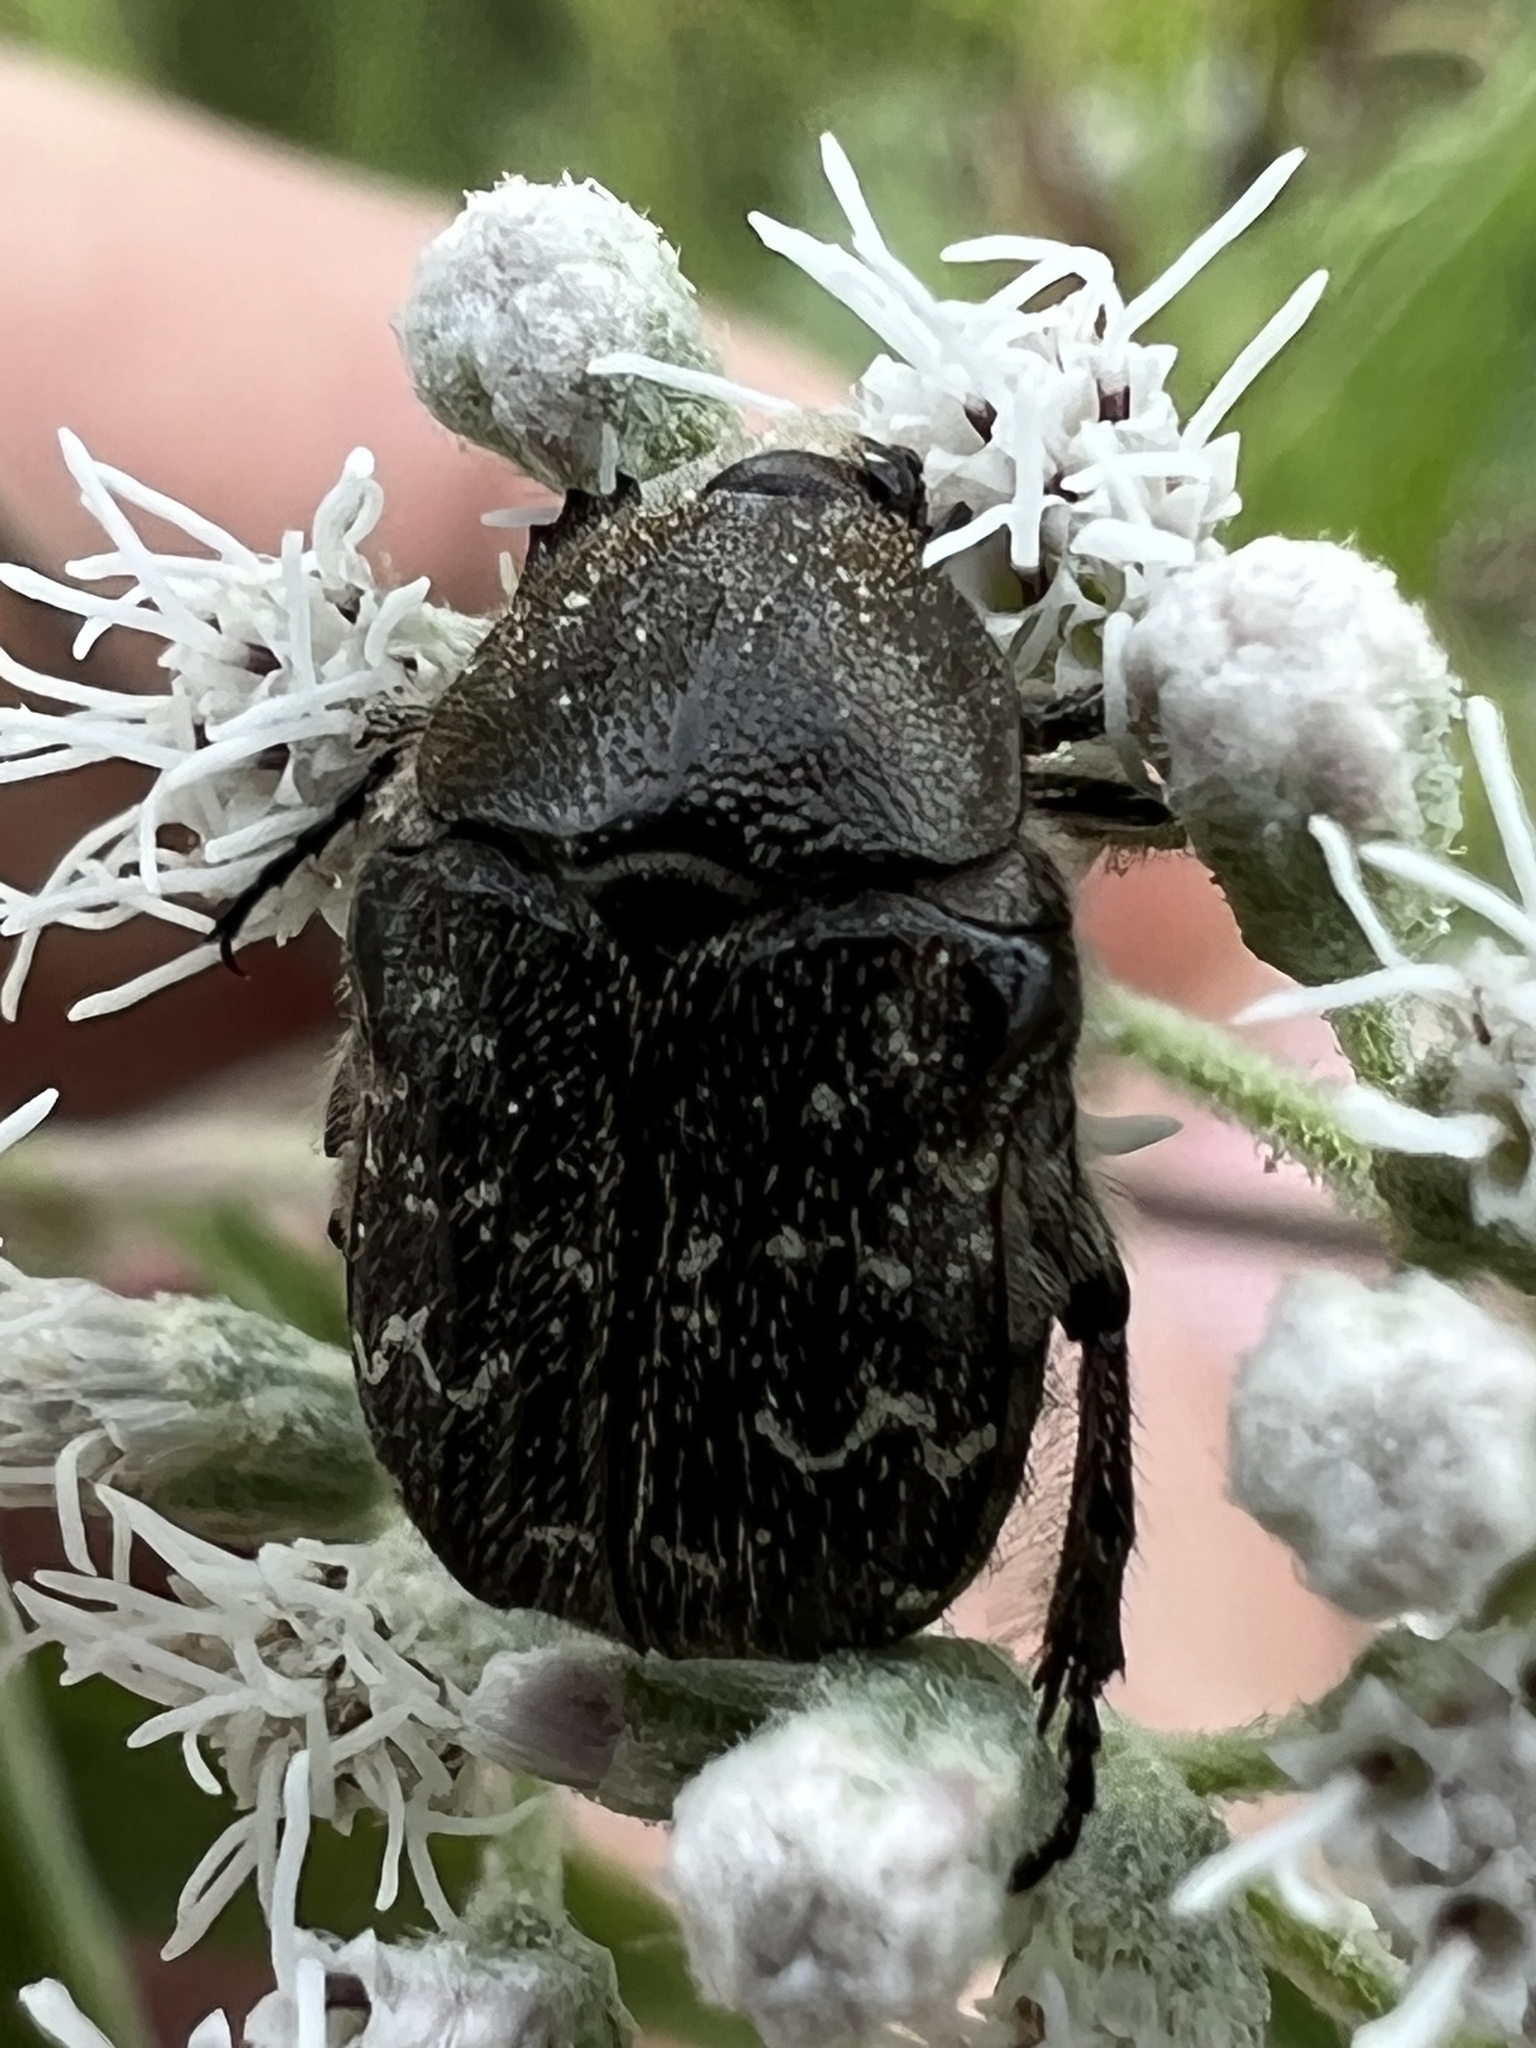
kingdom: Animalia
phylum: Arthropoda
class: Insecta
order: Coleoptera
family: Scarabaeidae
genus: Euphoria
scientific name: Euphoria sepulcralis
